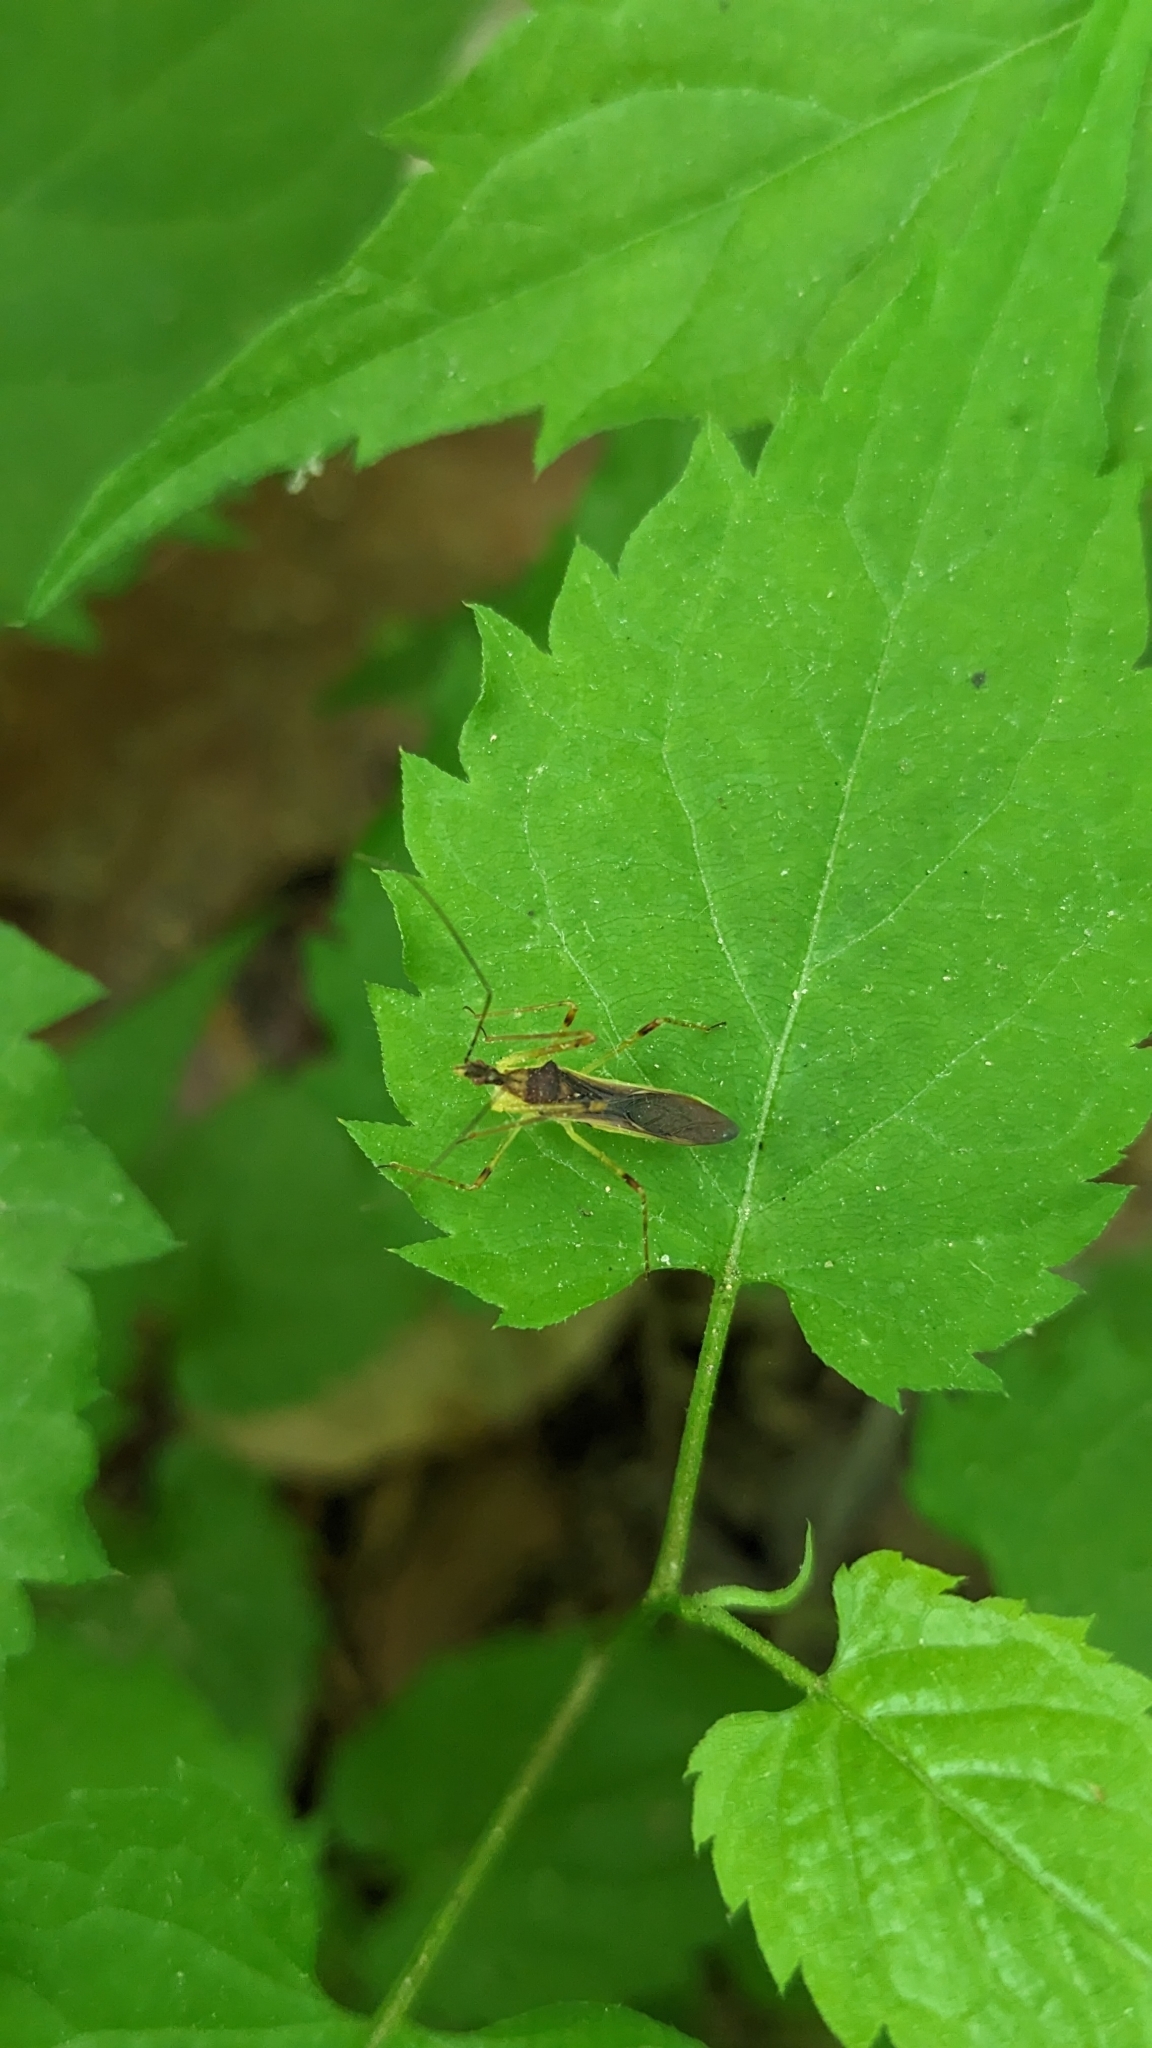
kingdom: Animalia
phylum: Arthropoda
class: Insecta
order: Hemiptera
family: Reduviidae
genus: Zelus
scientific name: Zelus luridus
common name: Pale green assassin bug
